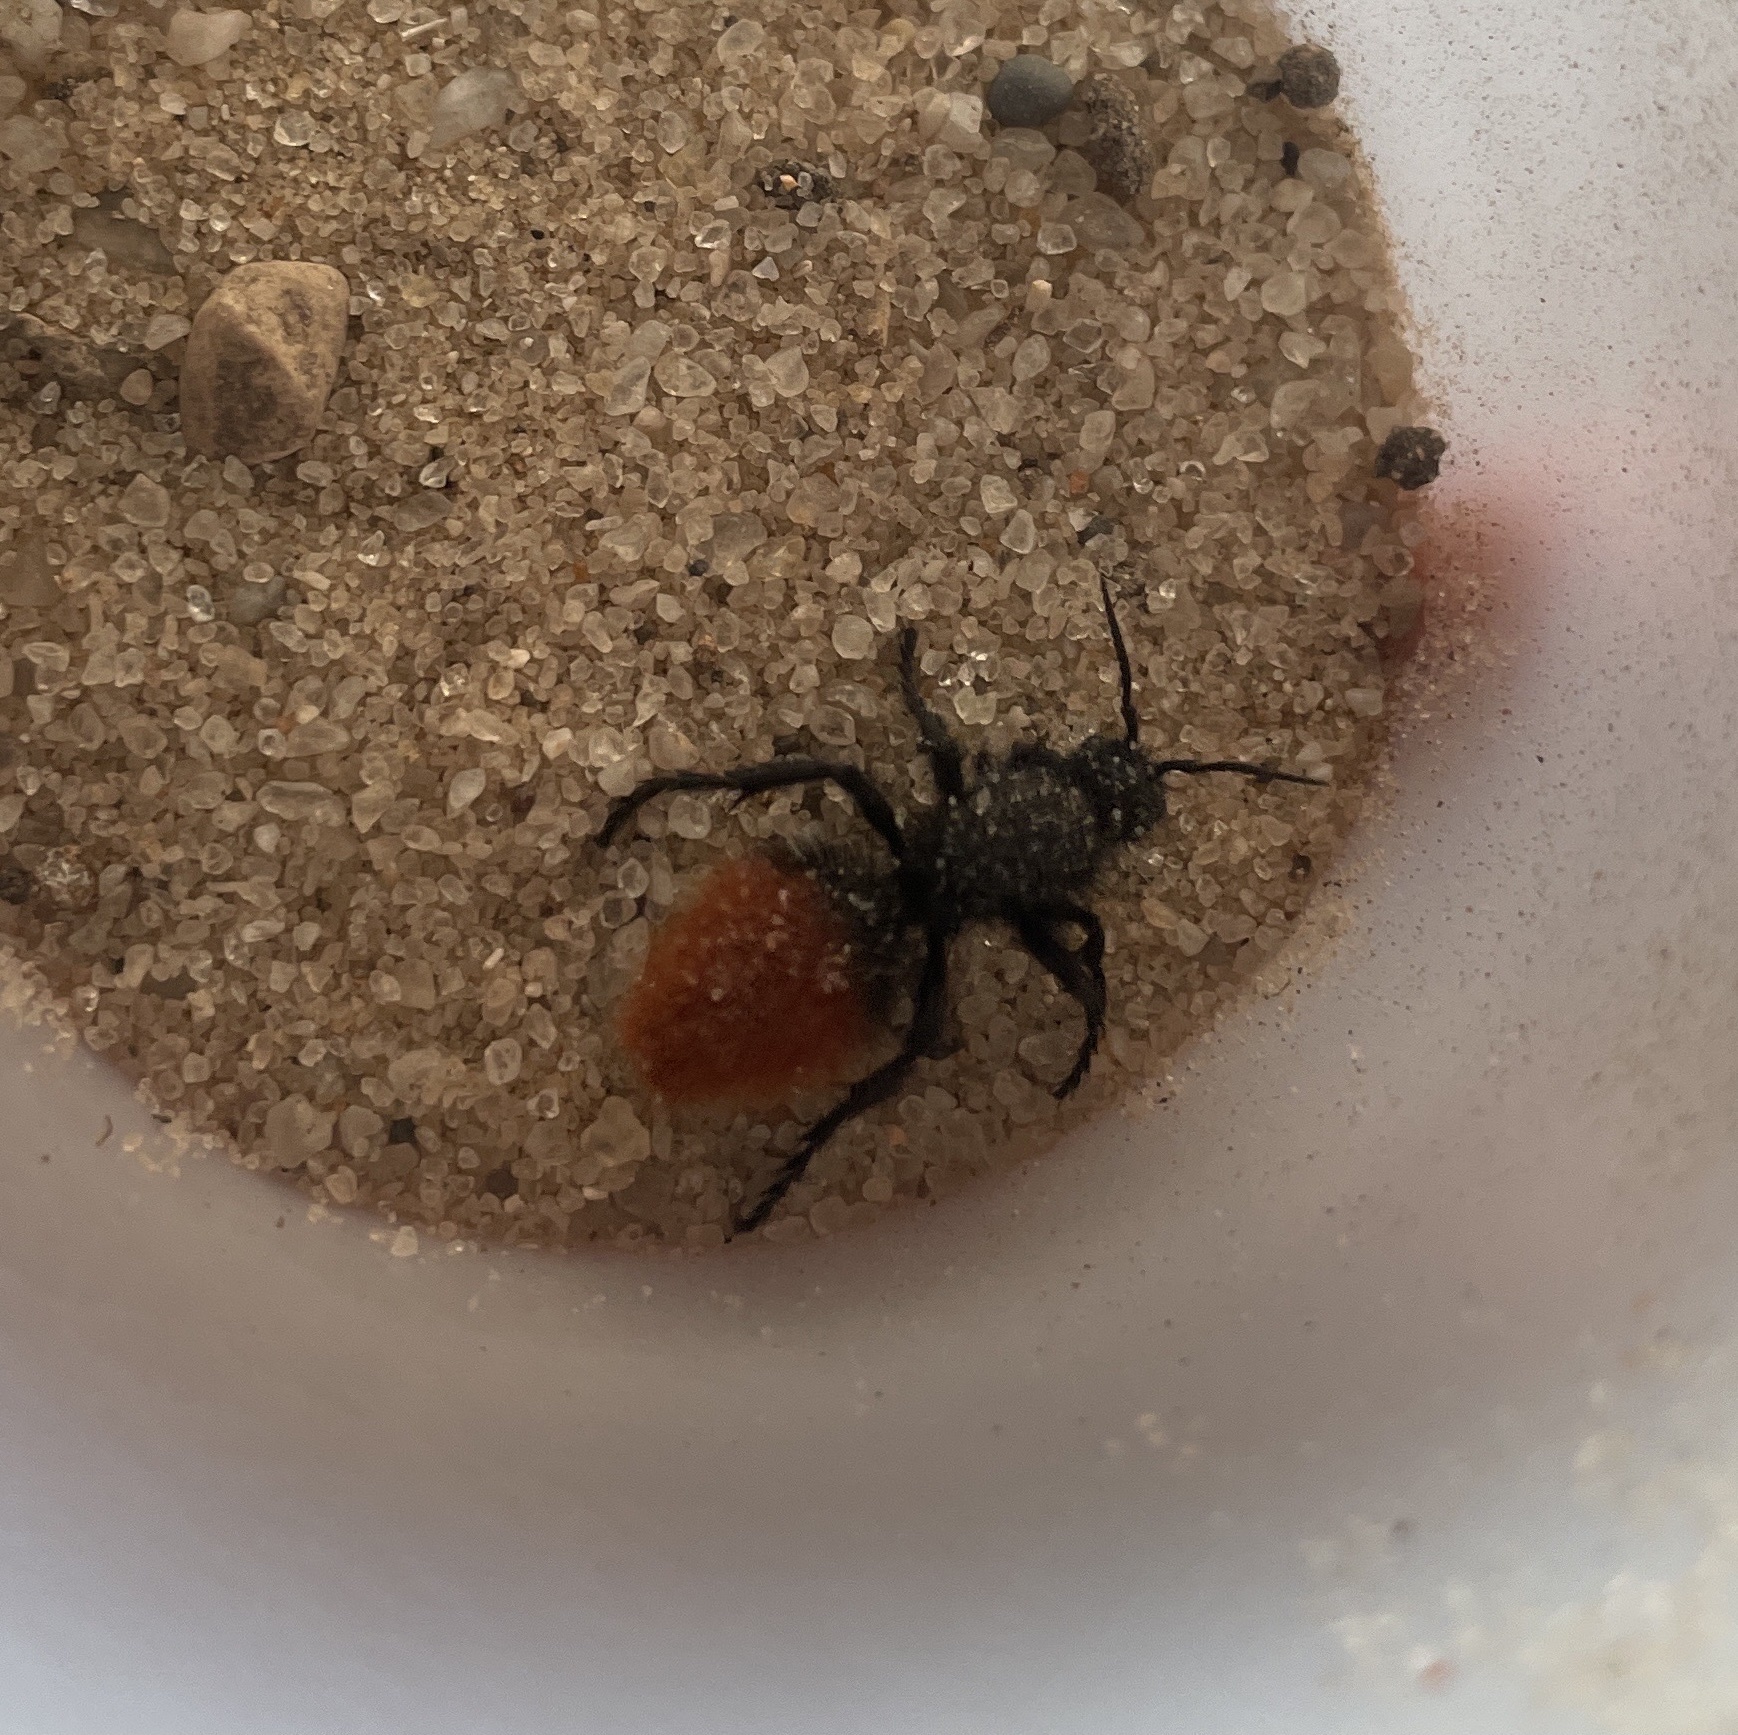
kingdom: Animalia
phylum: Arthropoda
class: Insecta
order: Hymenoptera
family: Mutillidae
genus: Dasymutilla
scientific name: Dasymutilla
